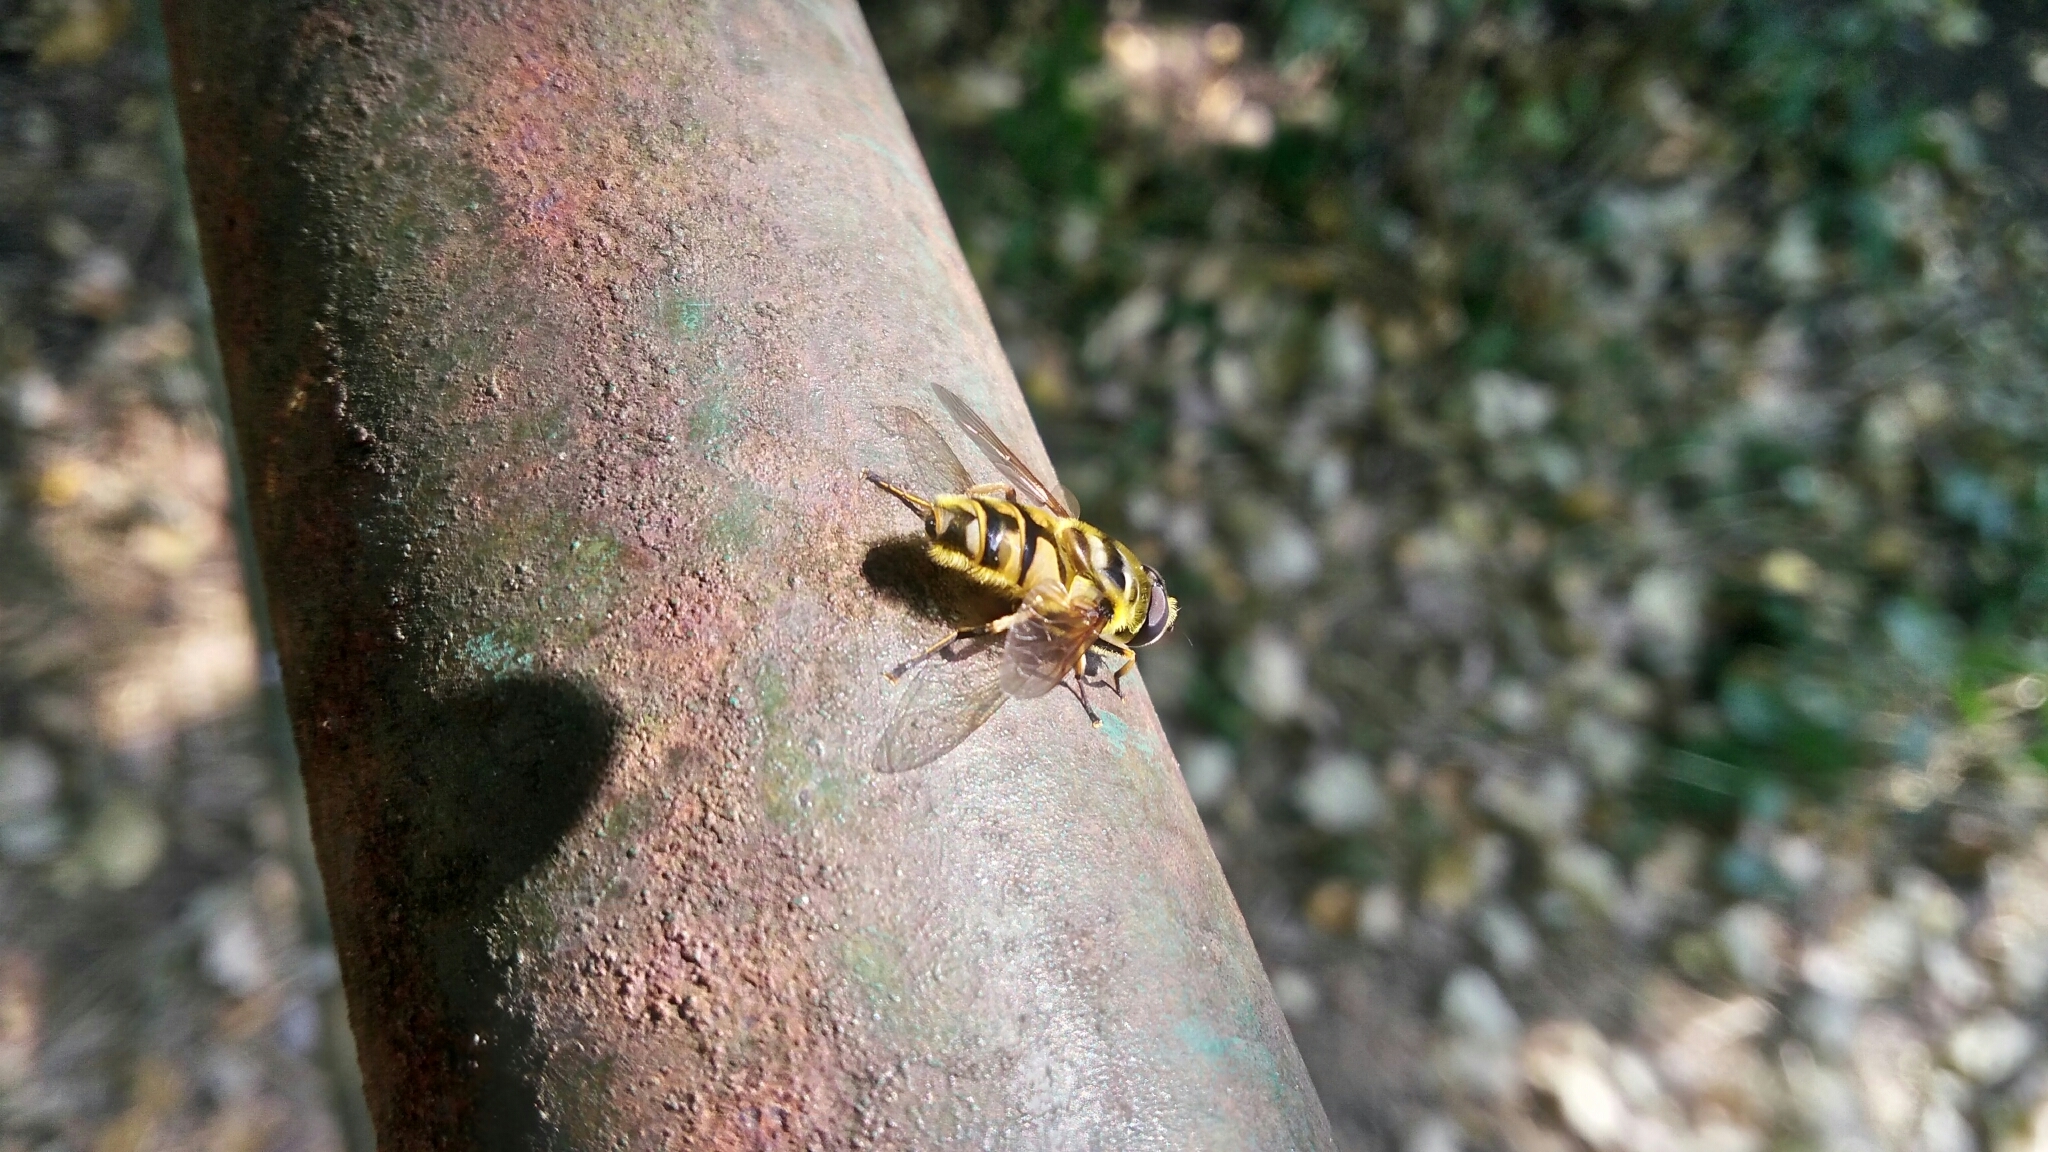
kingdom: Animalia
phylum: Arthropoda
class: Insecta
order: Diptera
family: Syrphidae
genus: Myathropa
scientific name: Myathropa florea
